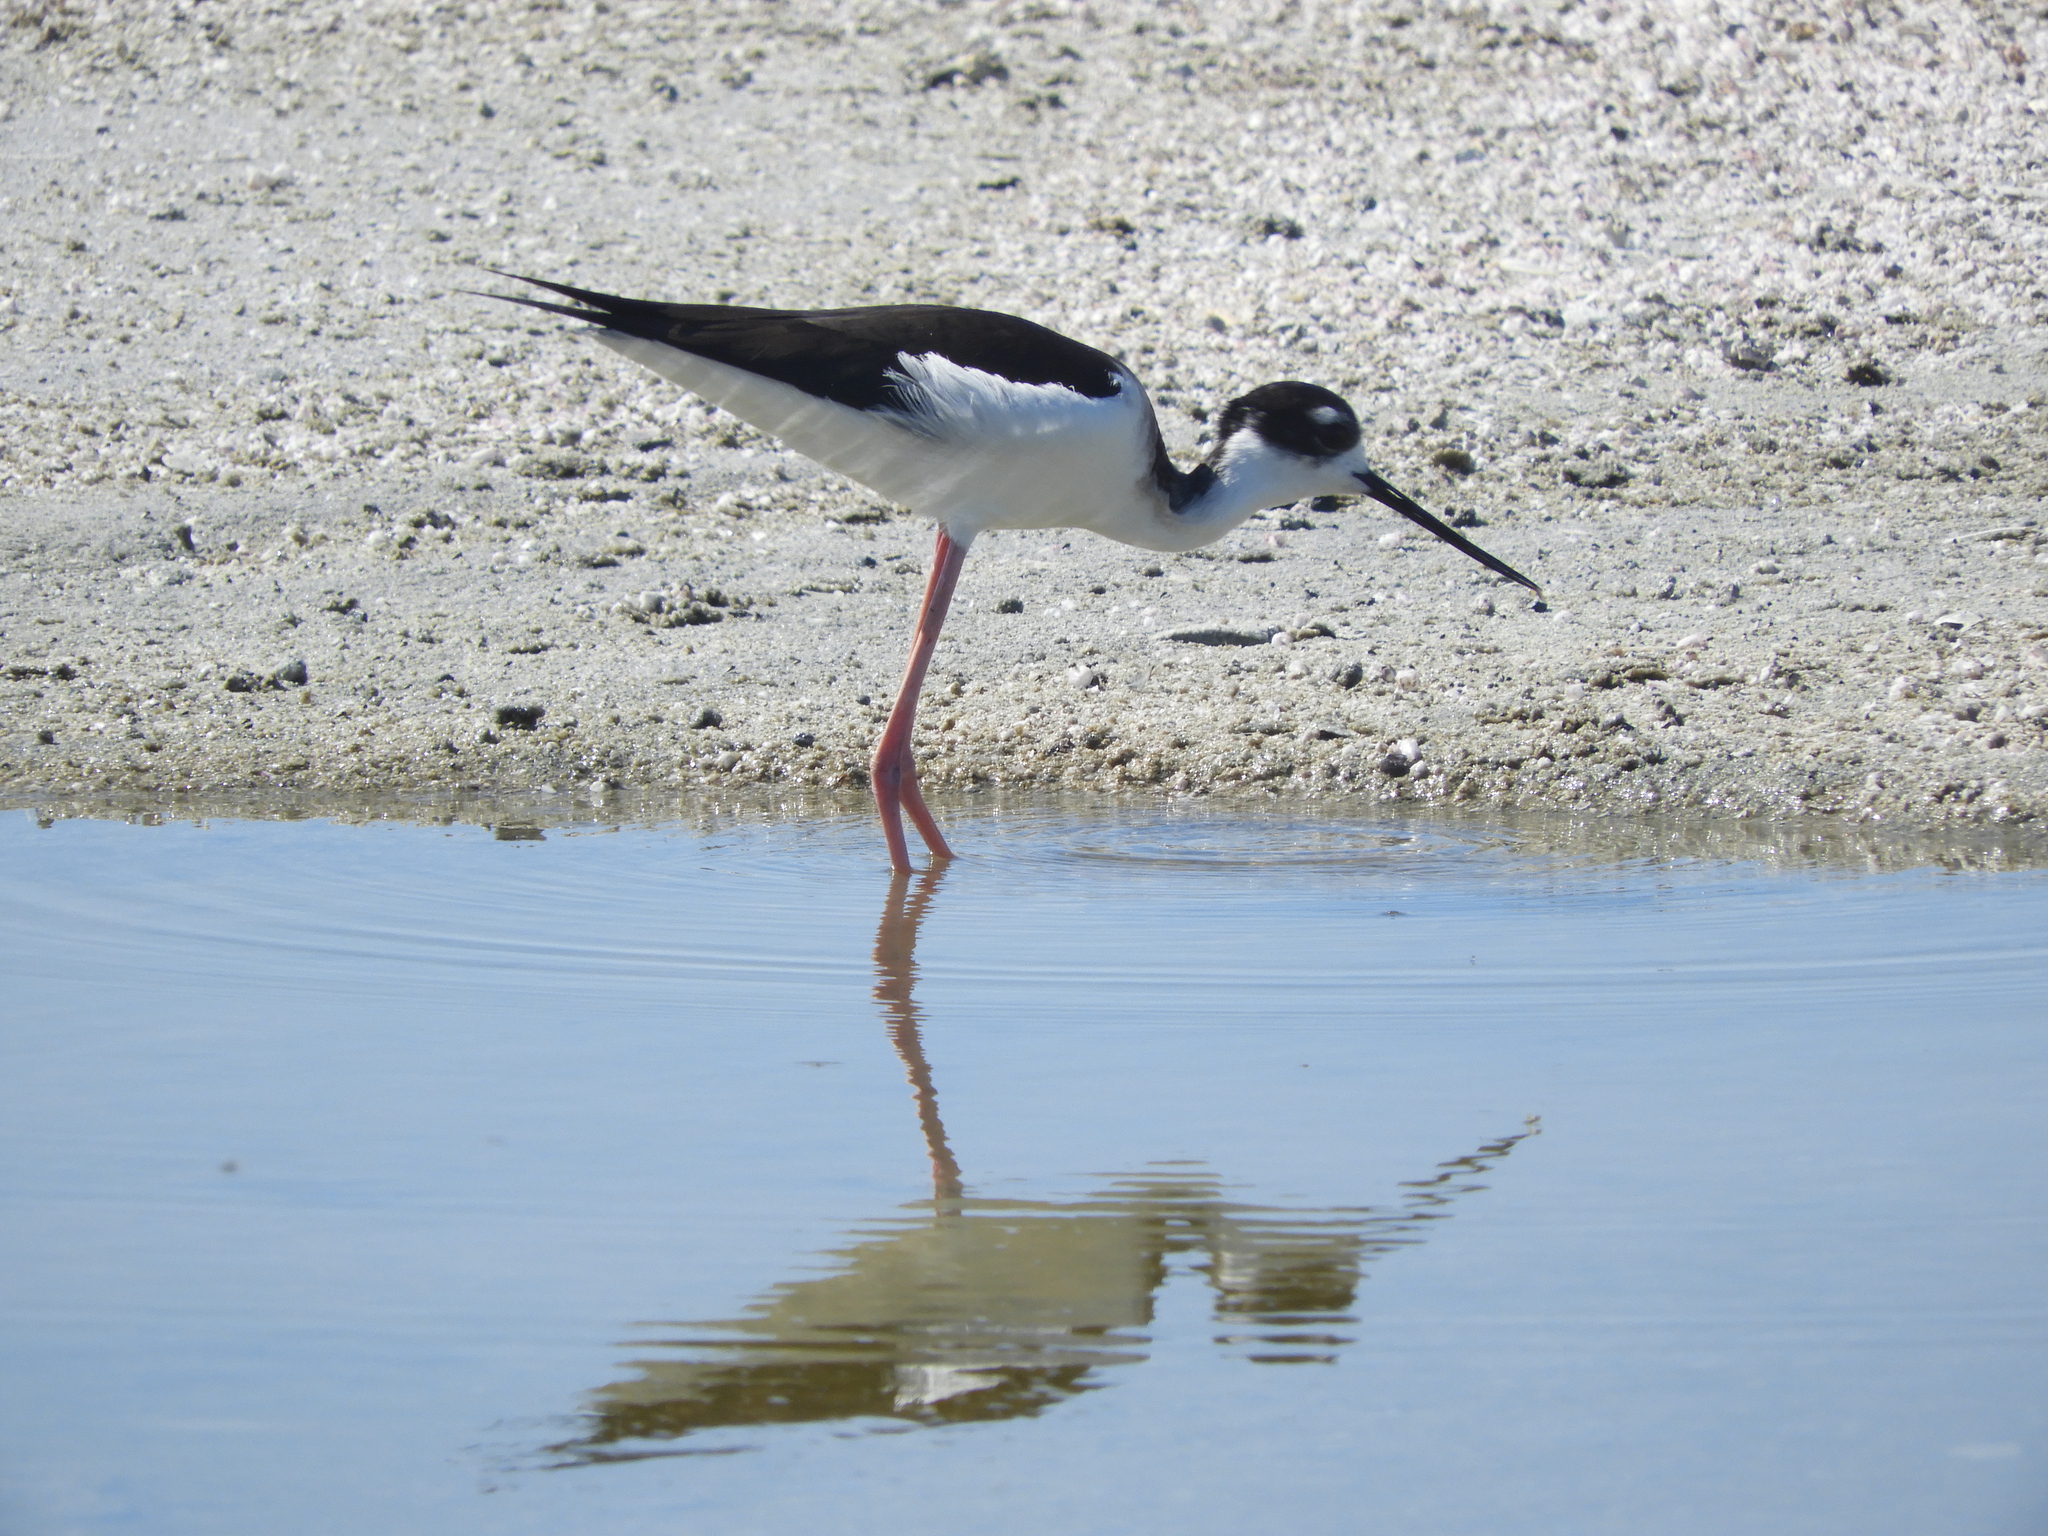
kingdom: Animalia
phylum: Chordata
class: Aves
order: Charadriiformes
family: Recurvirostridae
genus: Himantopus
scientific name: Himantopus mexicanus
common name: Black-necked stilt
